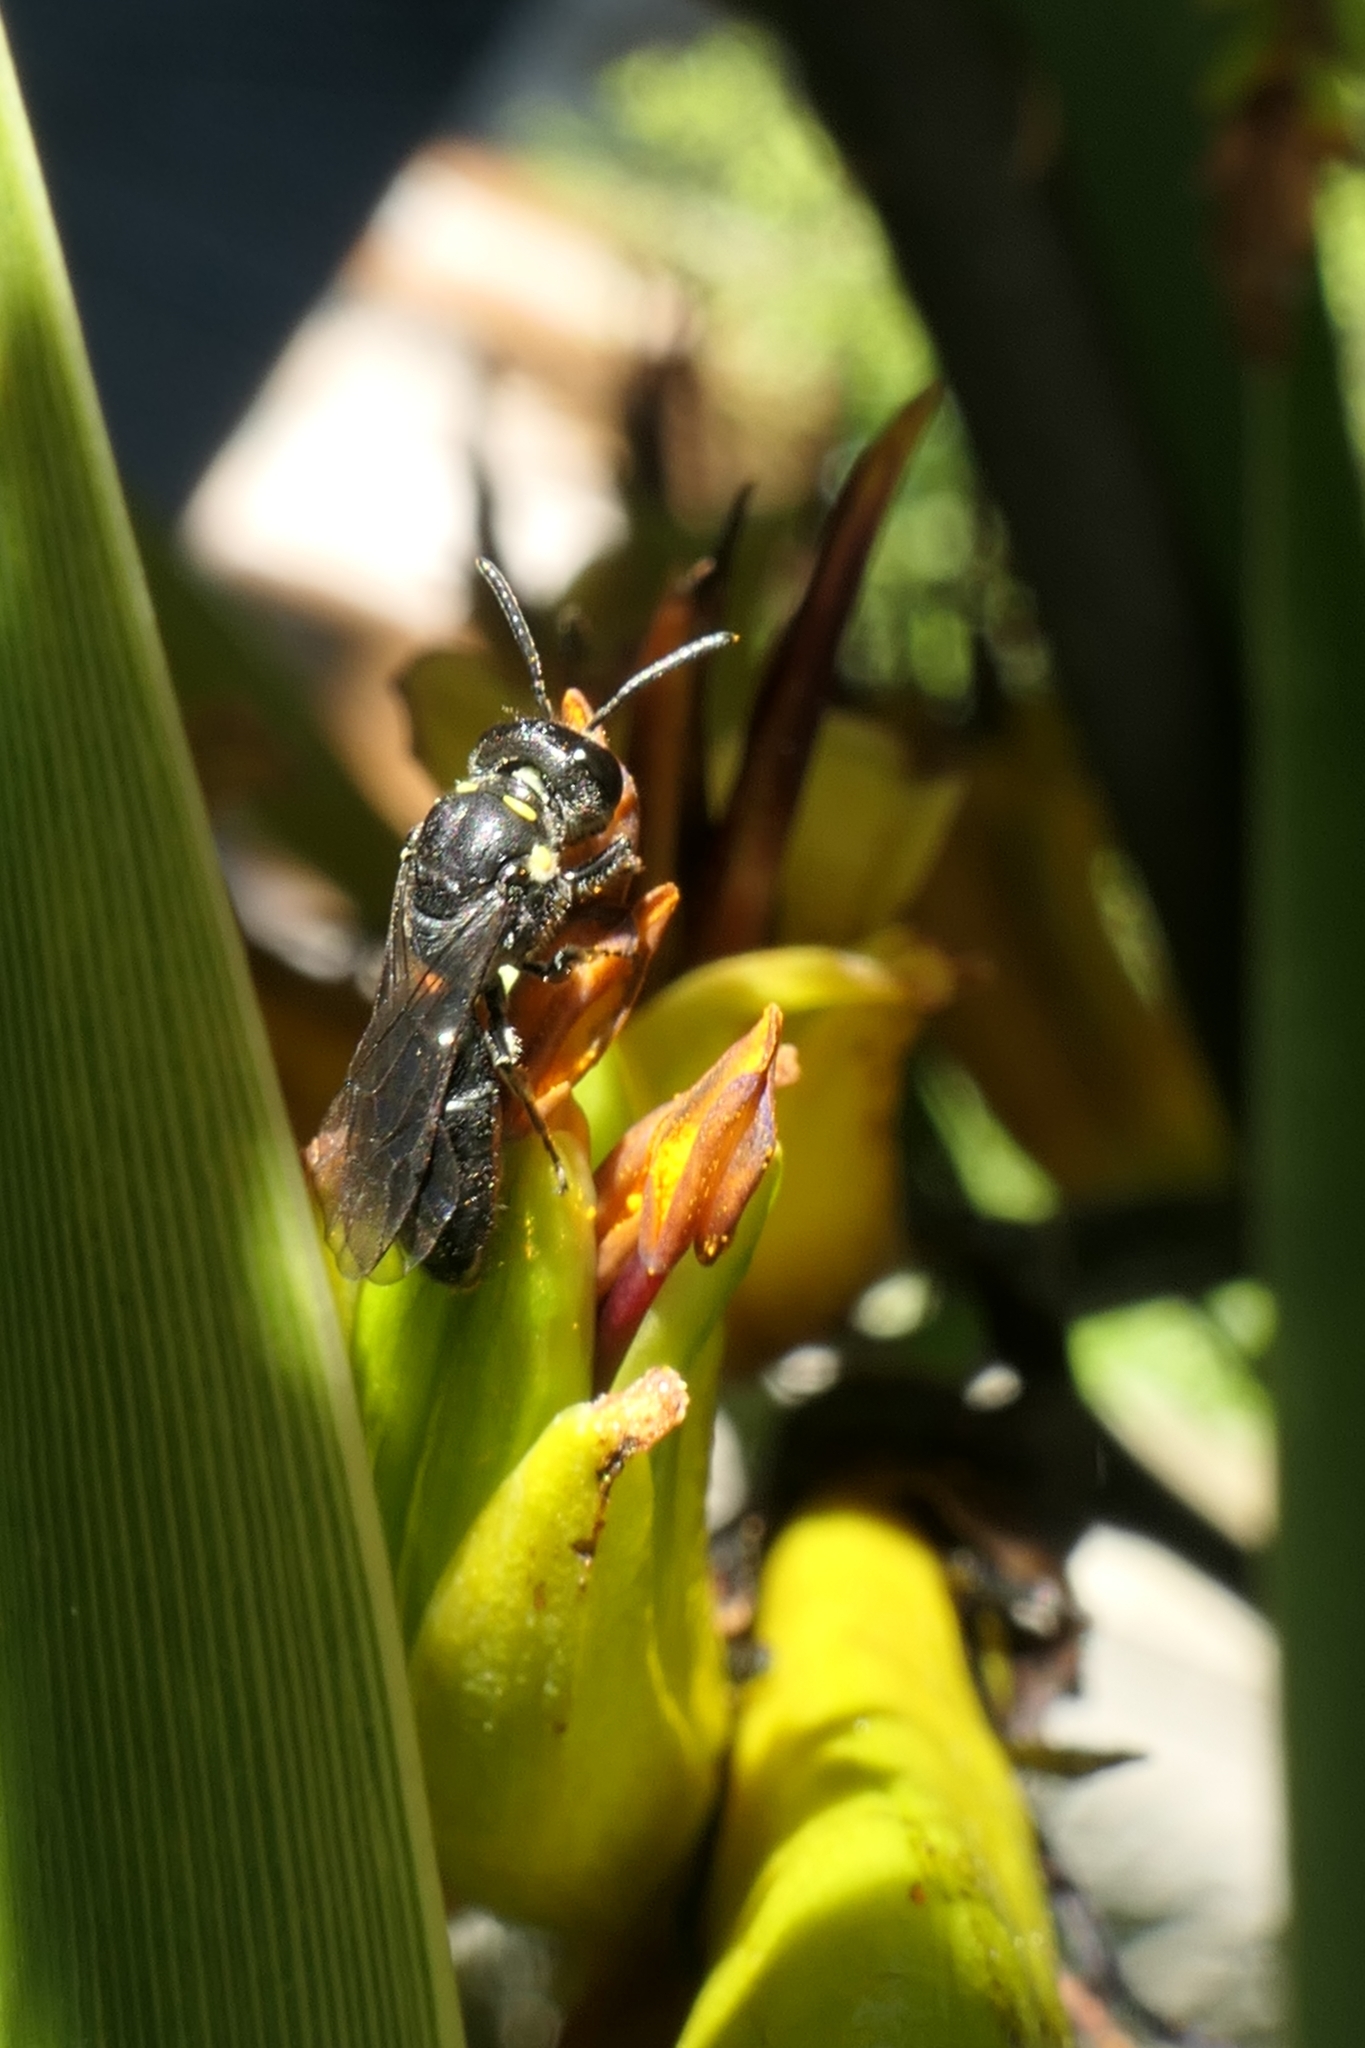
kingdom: Animalia
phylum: Arthropoda
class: Insecta
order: Hymenoptera
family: Colletidae
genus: Hylaeus
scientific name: Hylaeus relegatus
